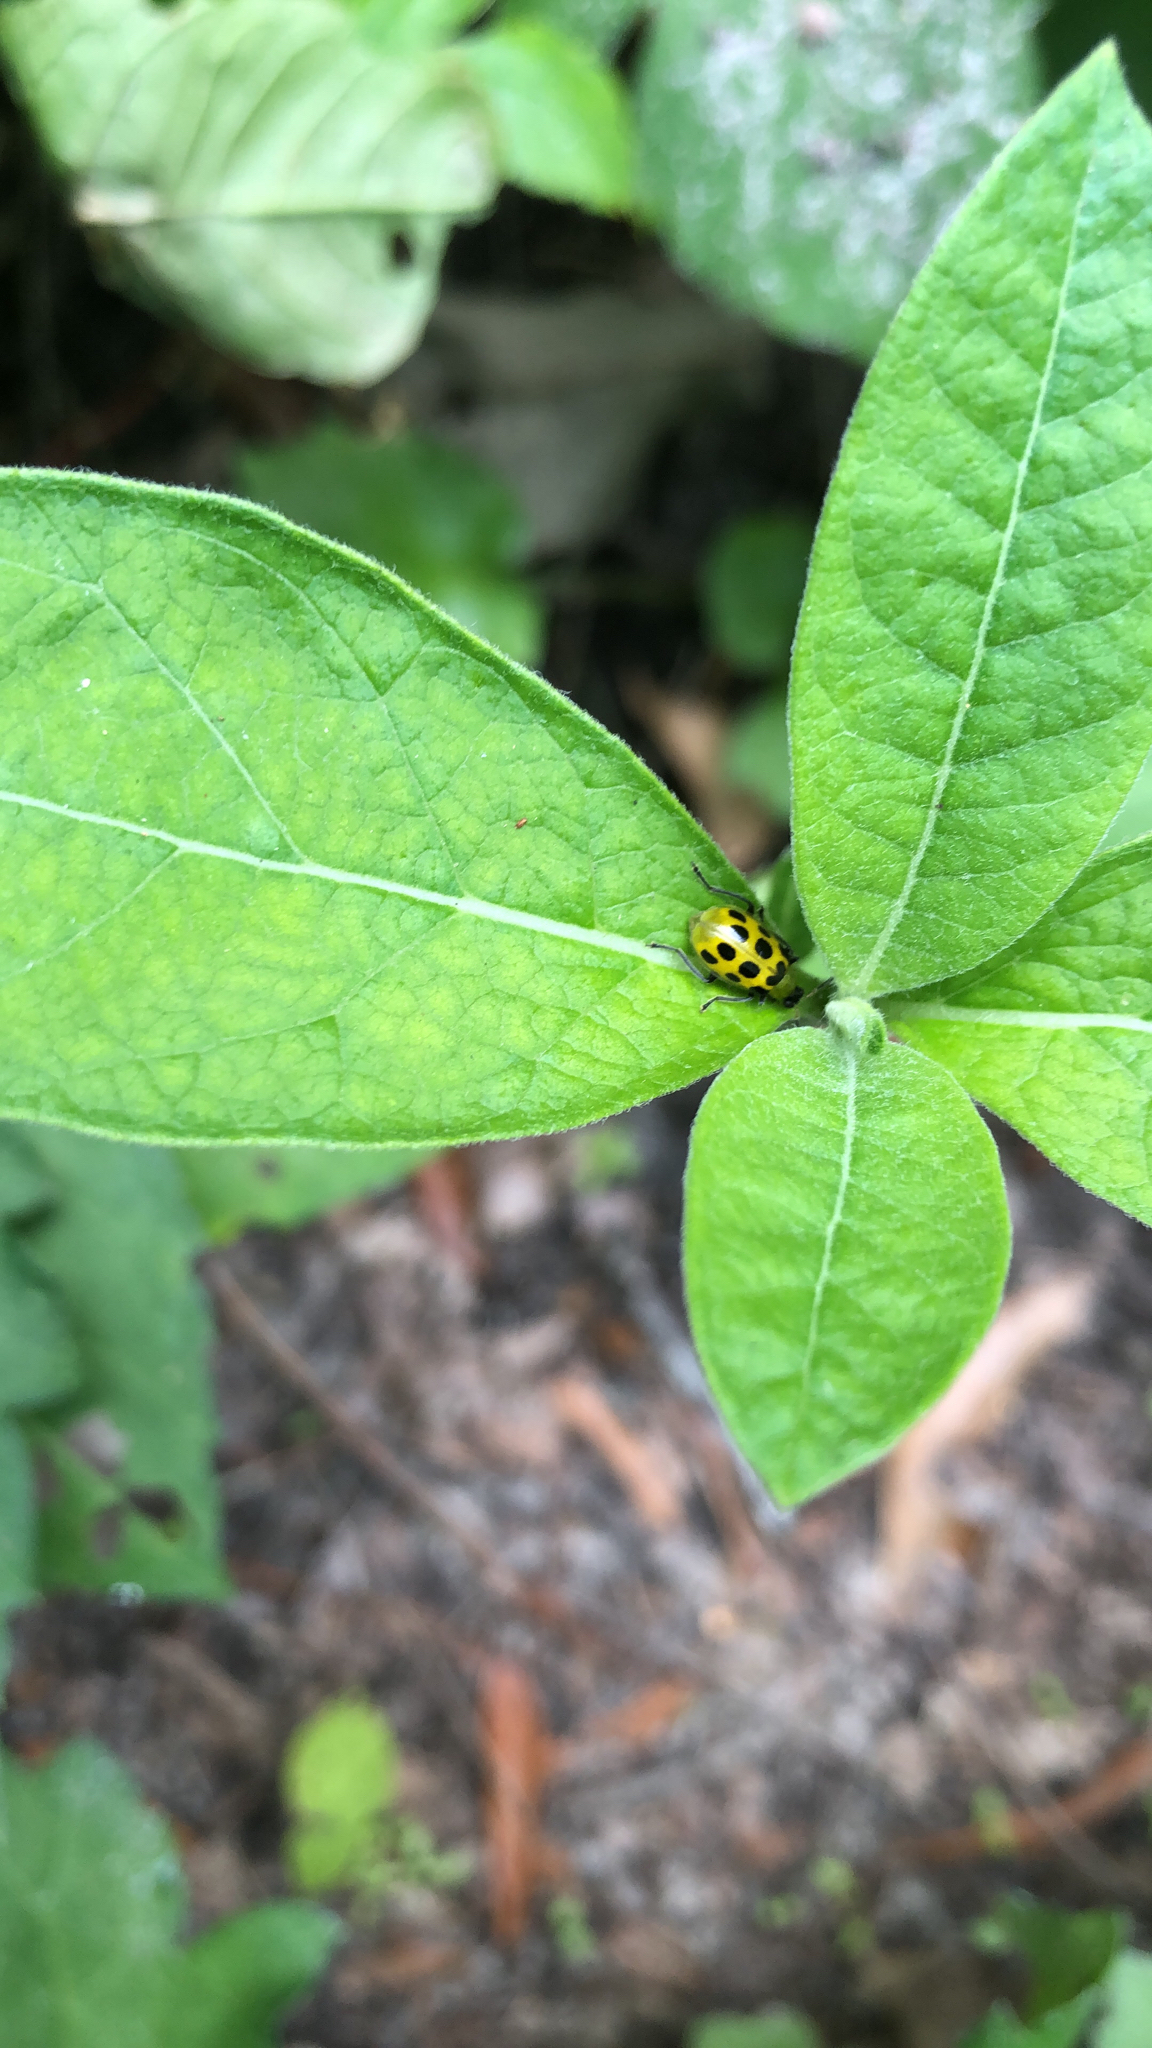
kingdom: Animalia
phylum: Arthropoda
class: Insecta
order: Coleoptera
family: Chrysomelidae
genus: Diabrotica
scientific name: Diabrotica undecimpunctata
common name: Spotted cucumber beetle
